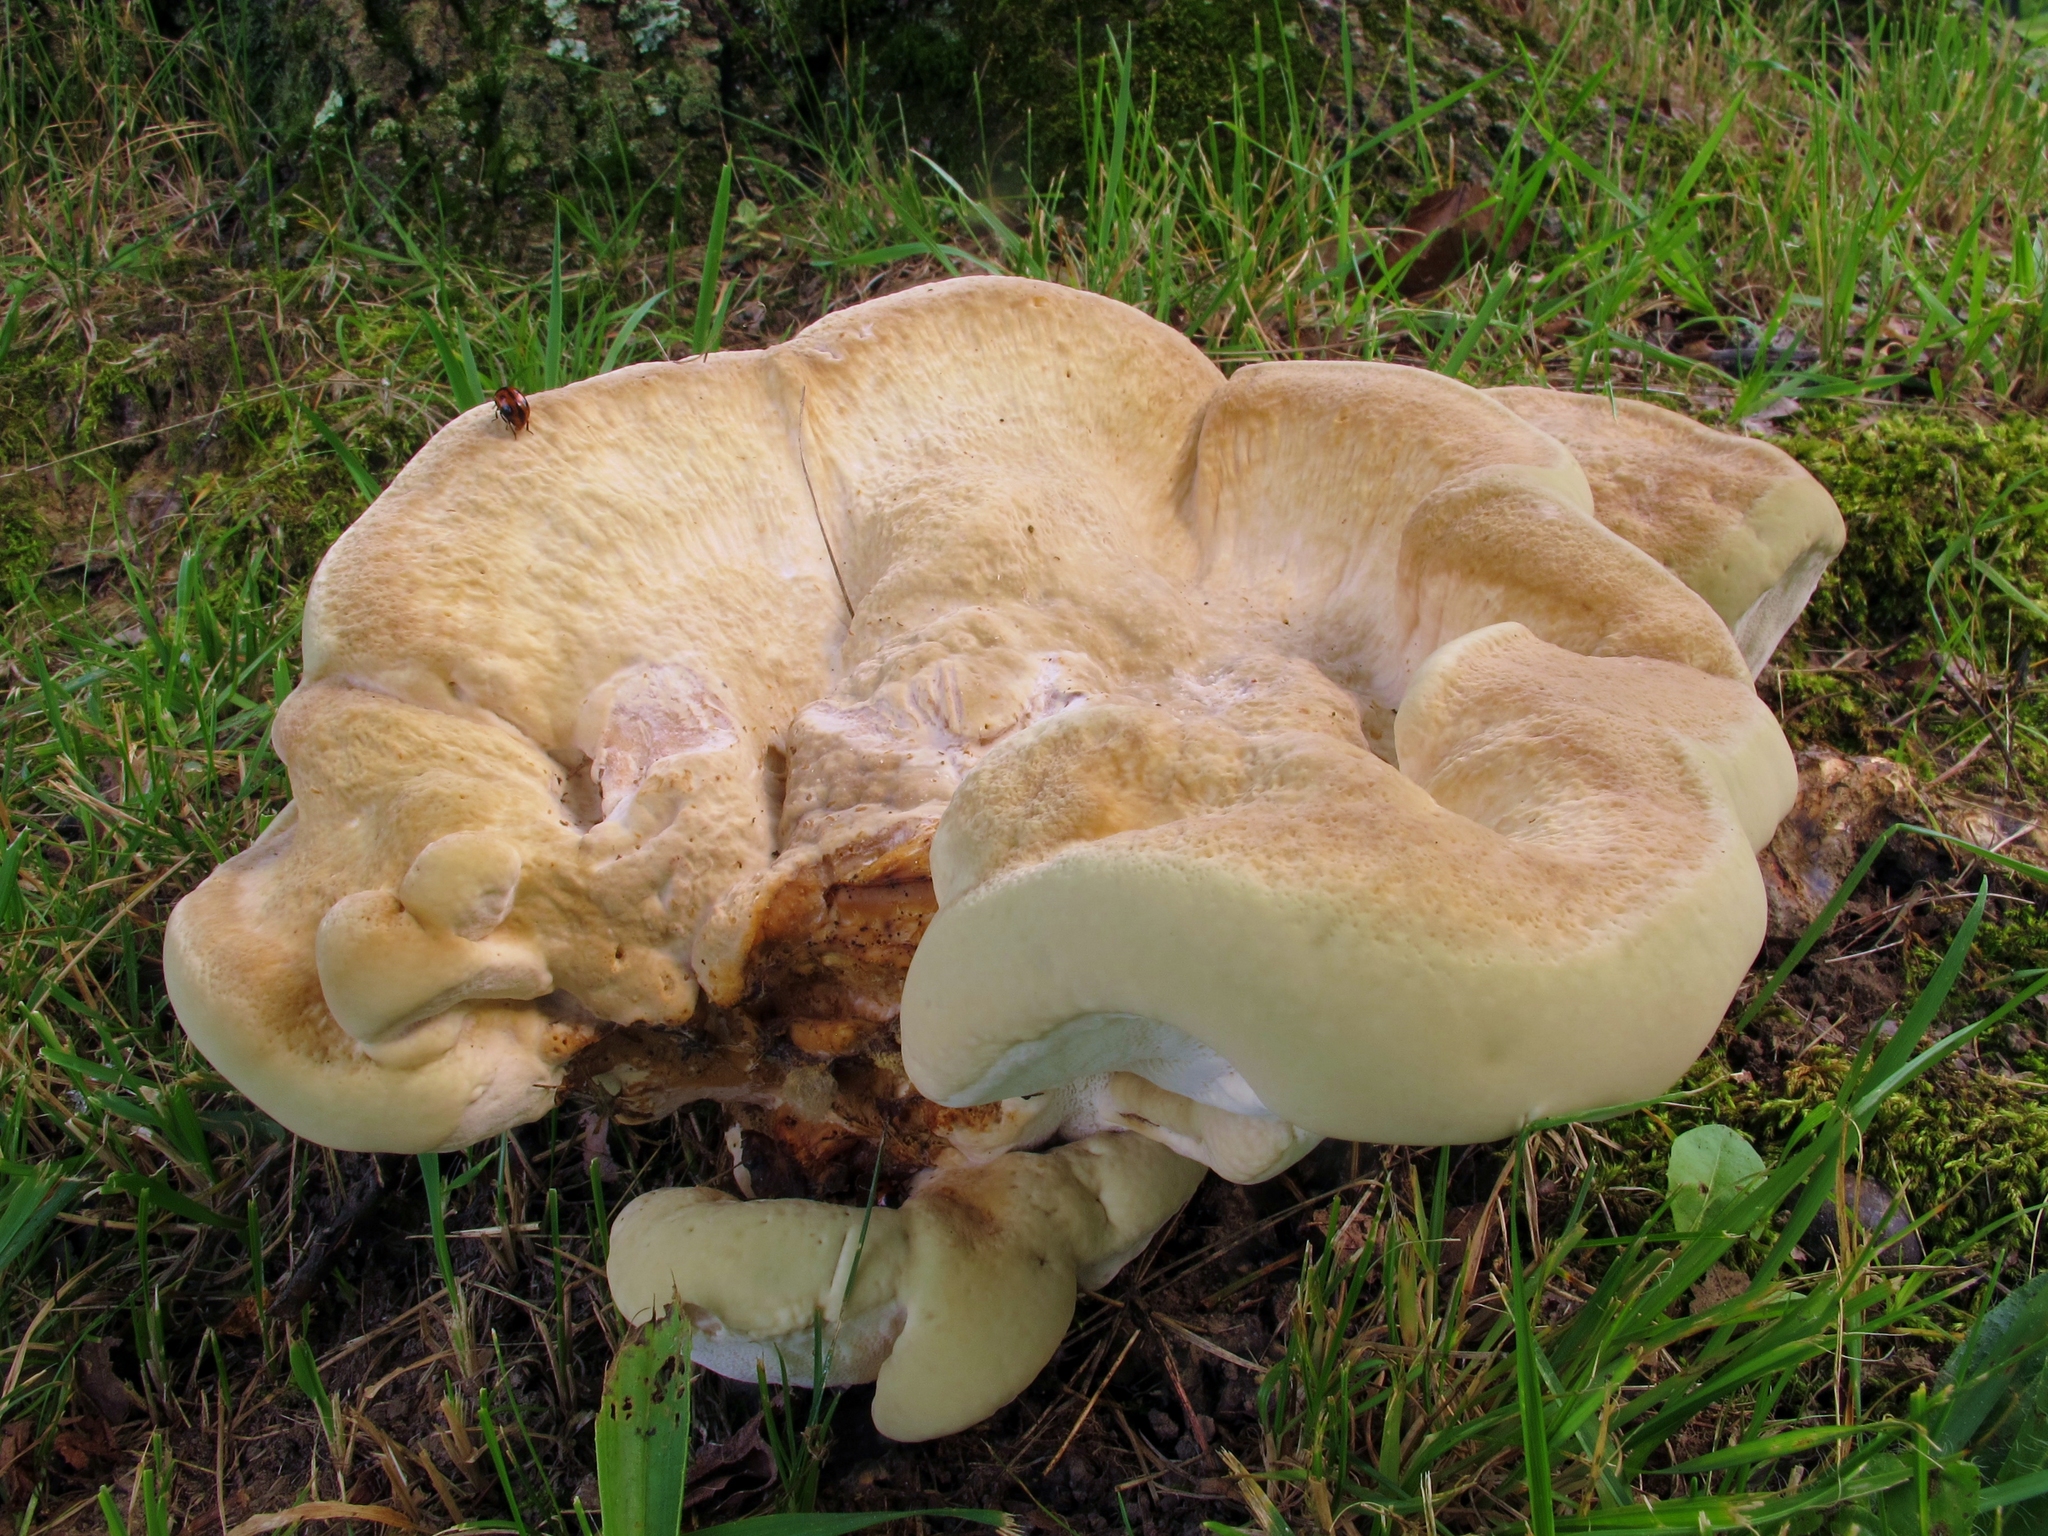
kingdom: Fungi
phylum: Basidiomycota
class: Agaricomycetes
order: Russulales
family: Bondarzewiaceae
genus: Bondarzewia
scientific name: Bondarzewia berkeleyi
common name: Berkeley's polypore
